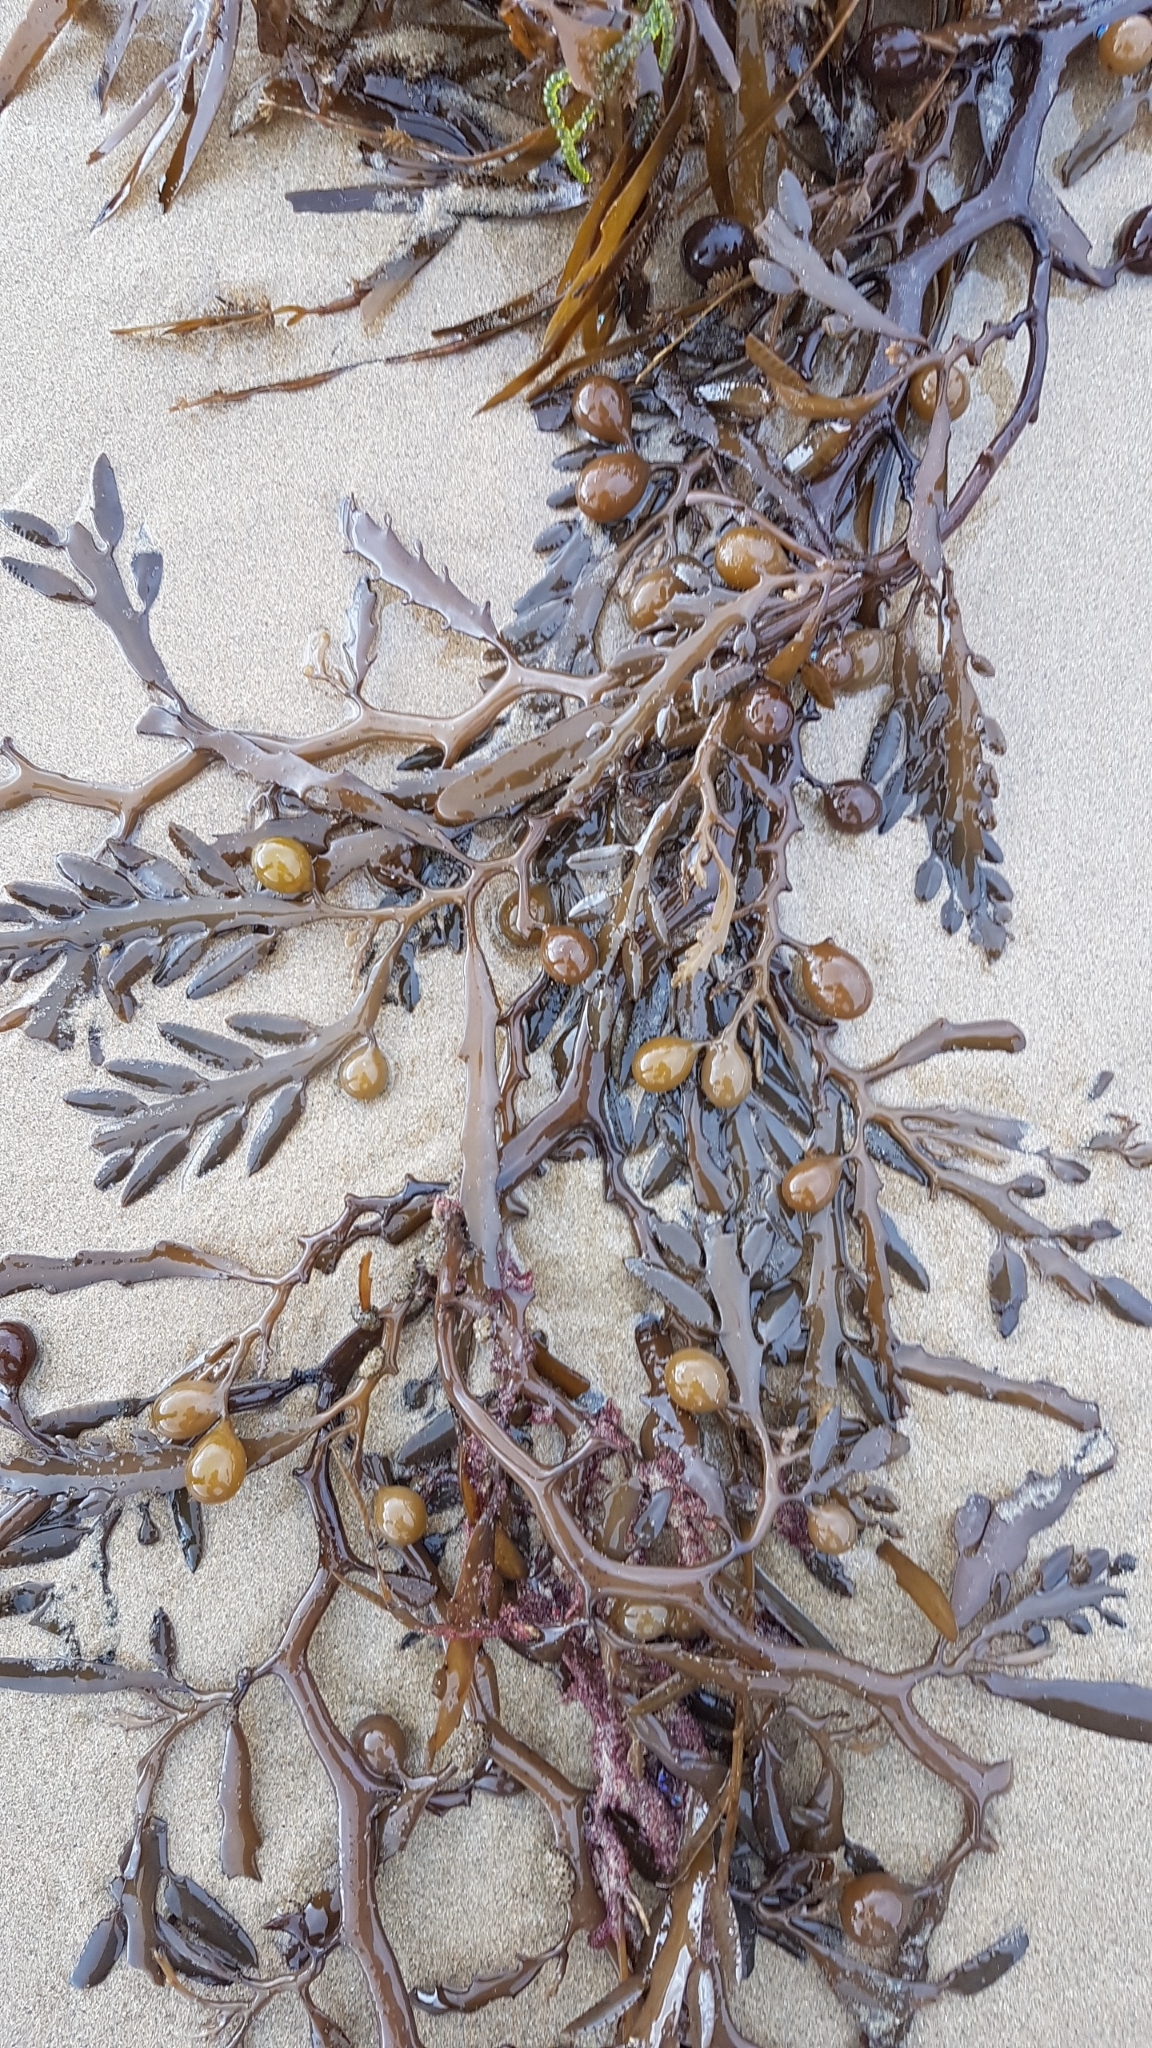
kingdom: Chromista
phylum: Ochrophyta
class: Phaeophyceae
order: Fucales
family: Sargassaceae
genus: Cystophora
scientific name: Cystophora platylobium
